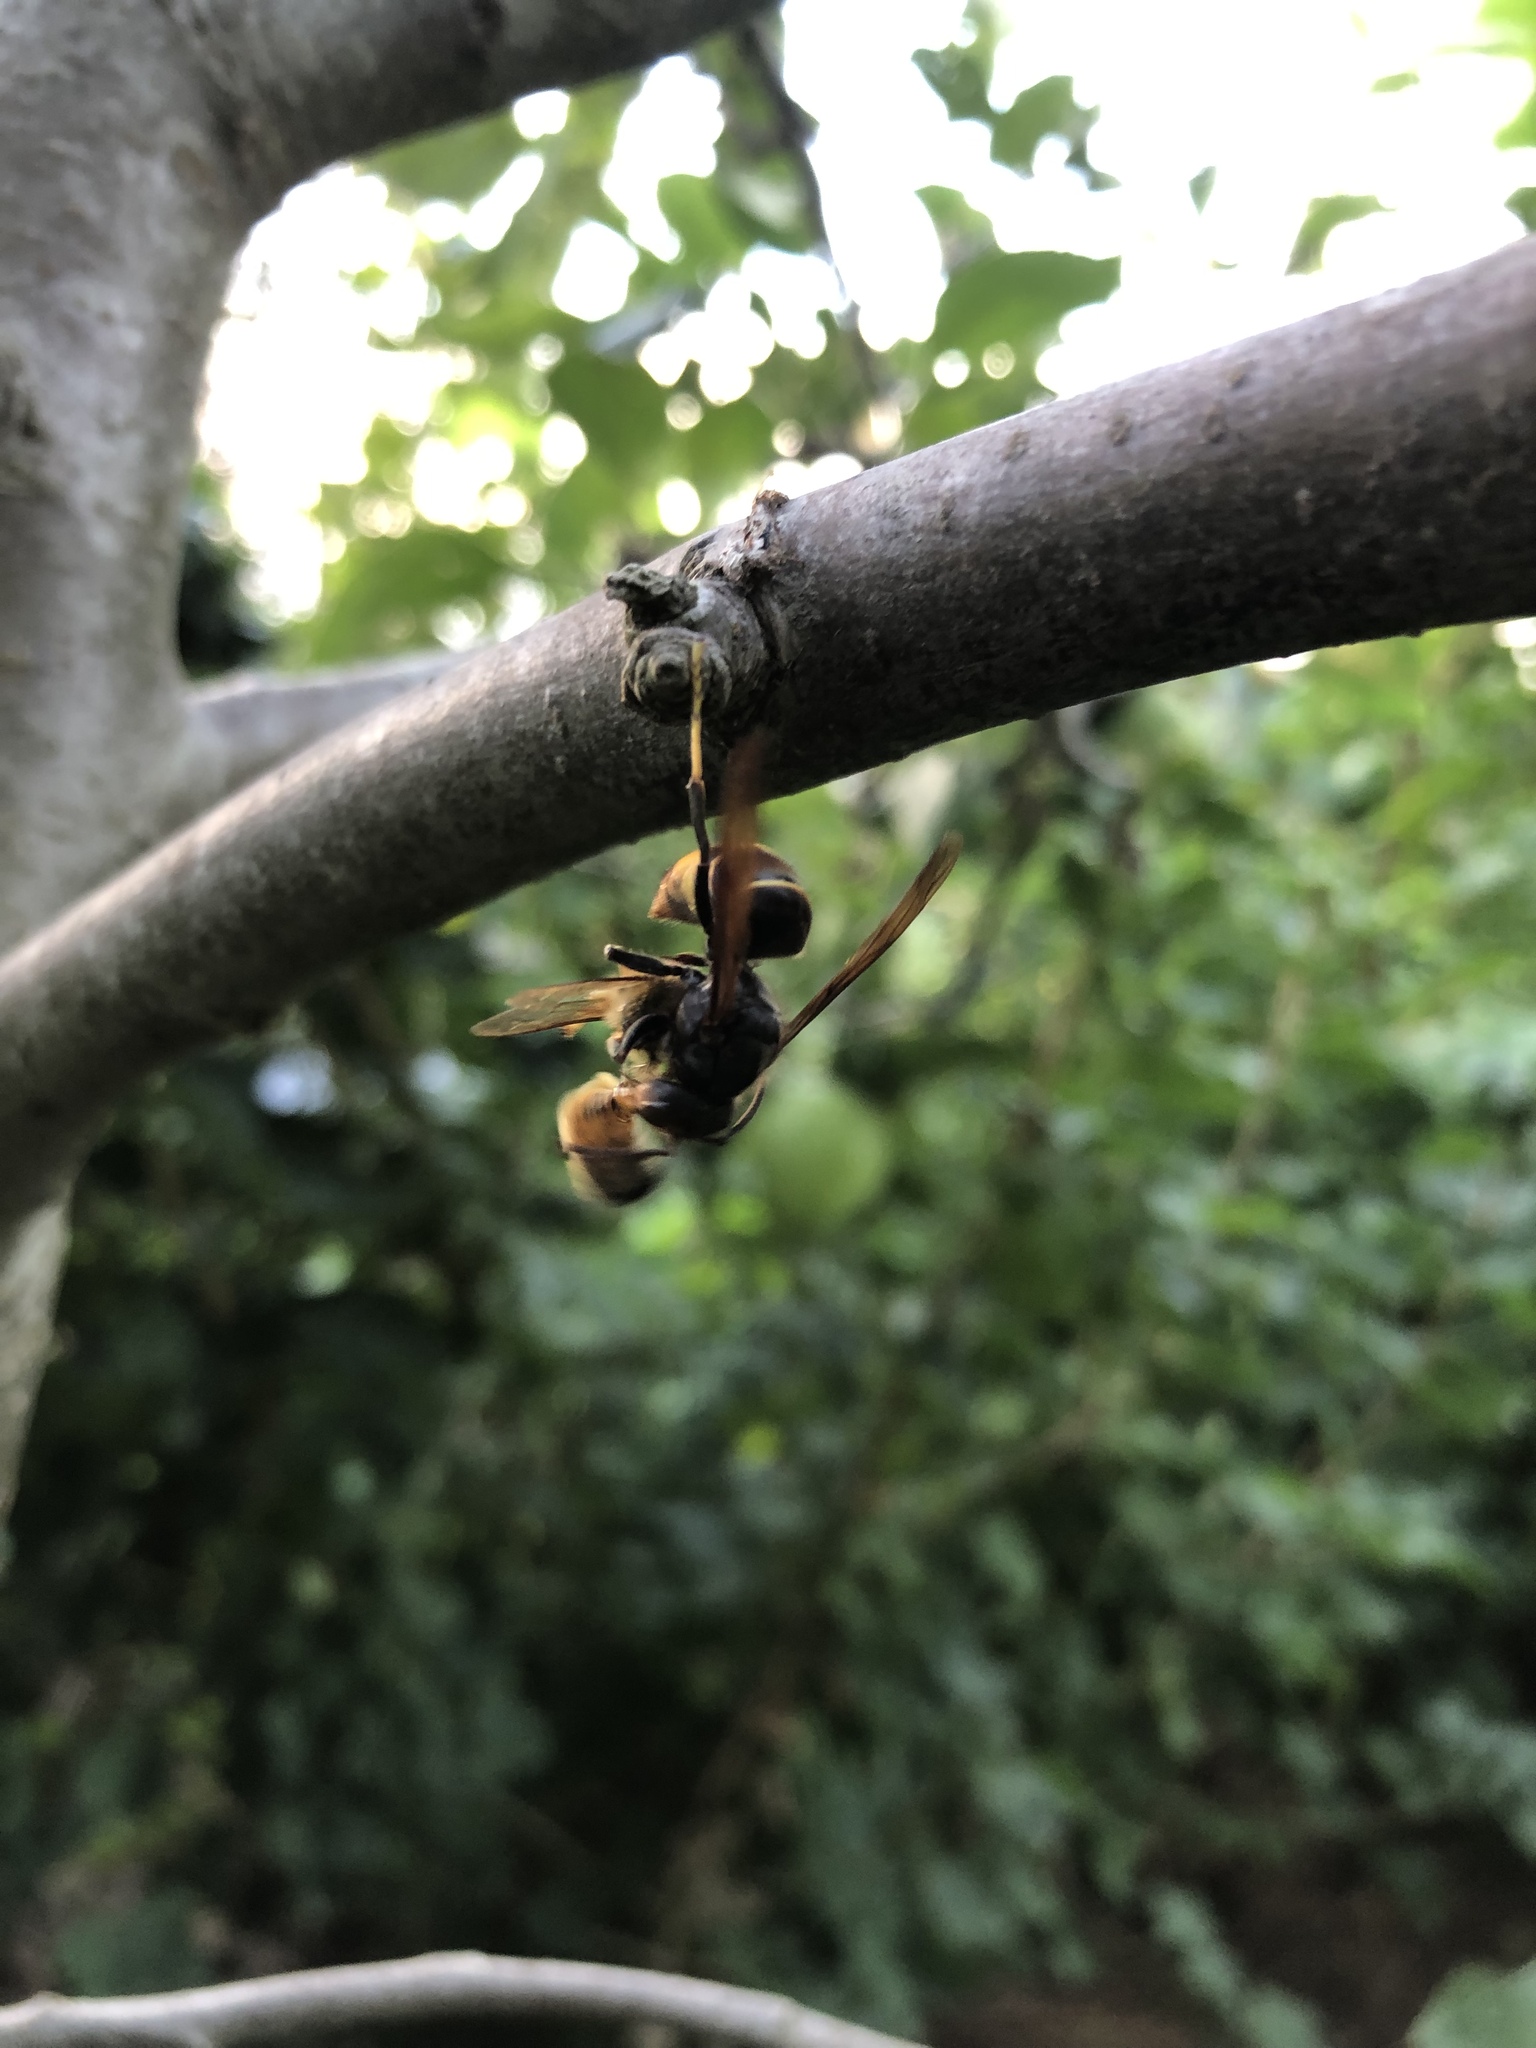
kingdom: Animalia
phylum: Arthropoda
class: Insecta
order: Hymenoptera
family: Vespidae
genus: Vespa
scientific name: Vespa velutina
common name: Asian hornet
